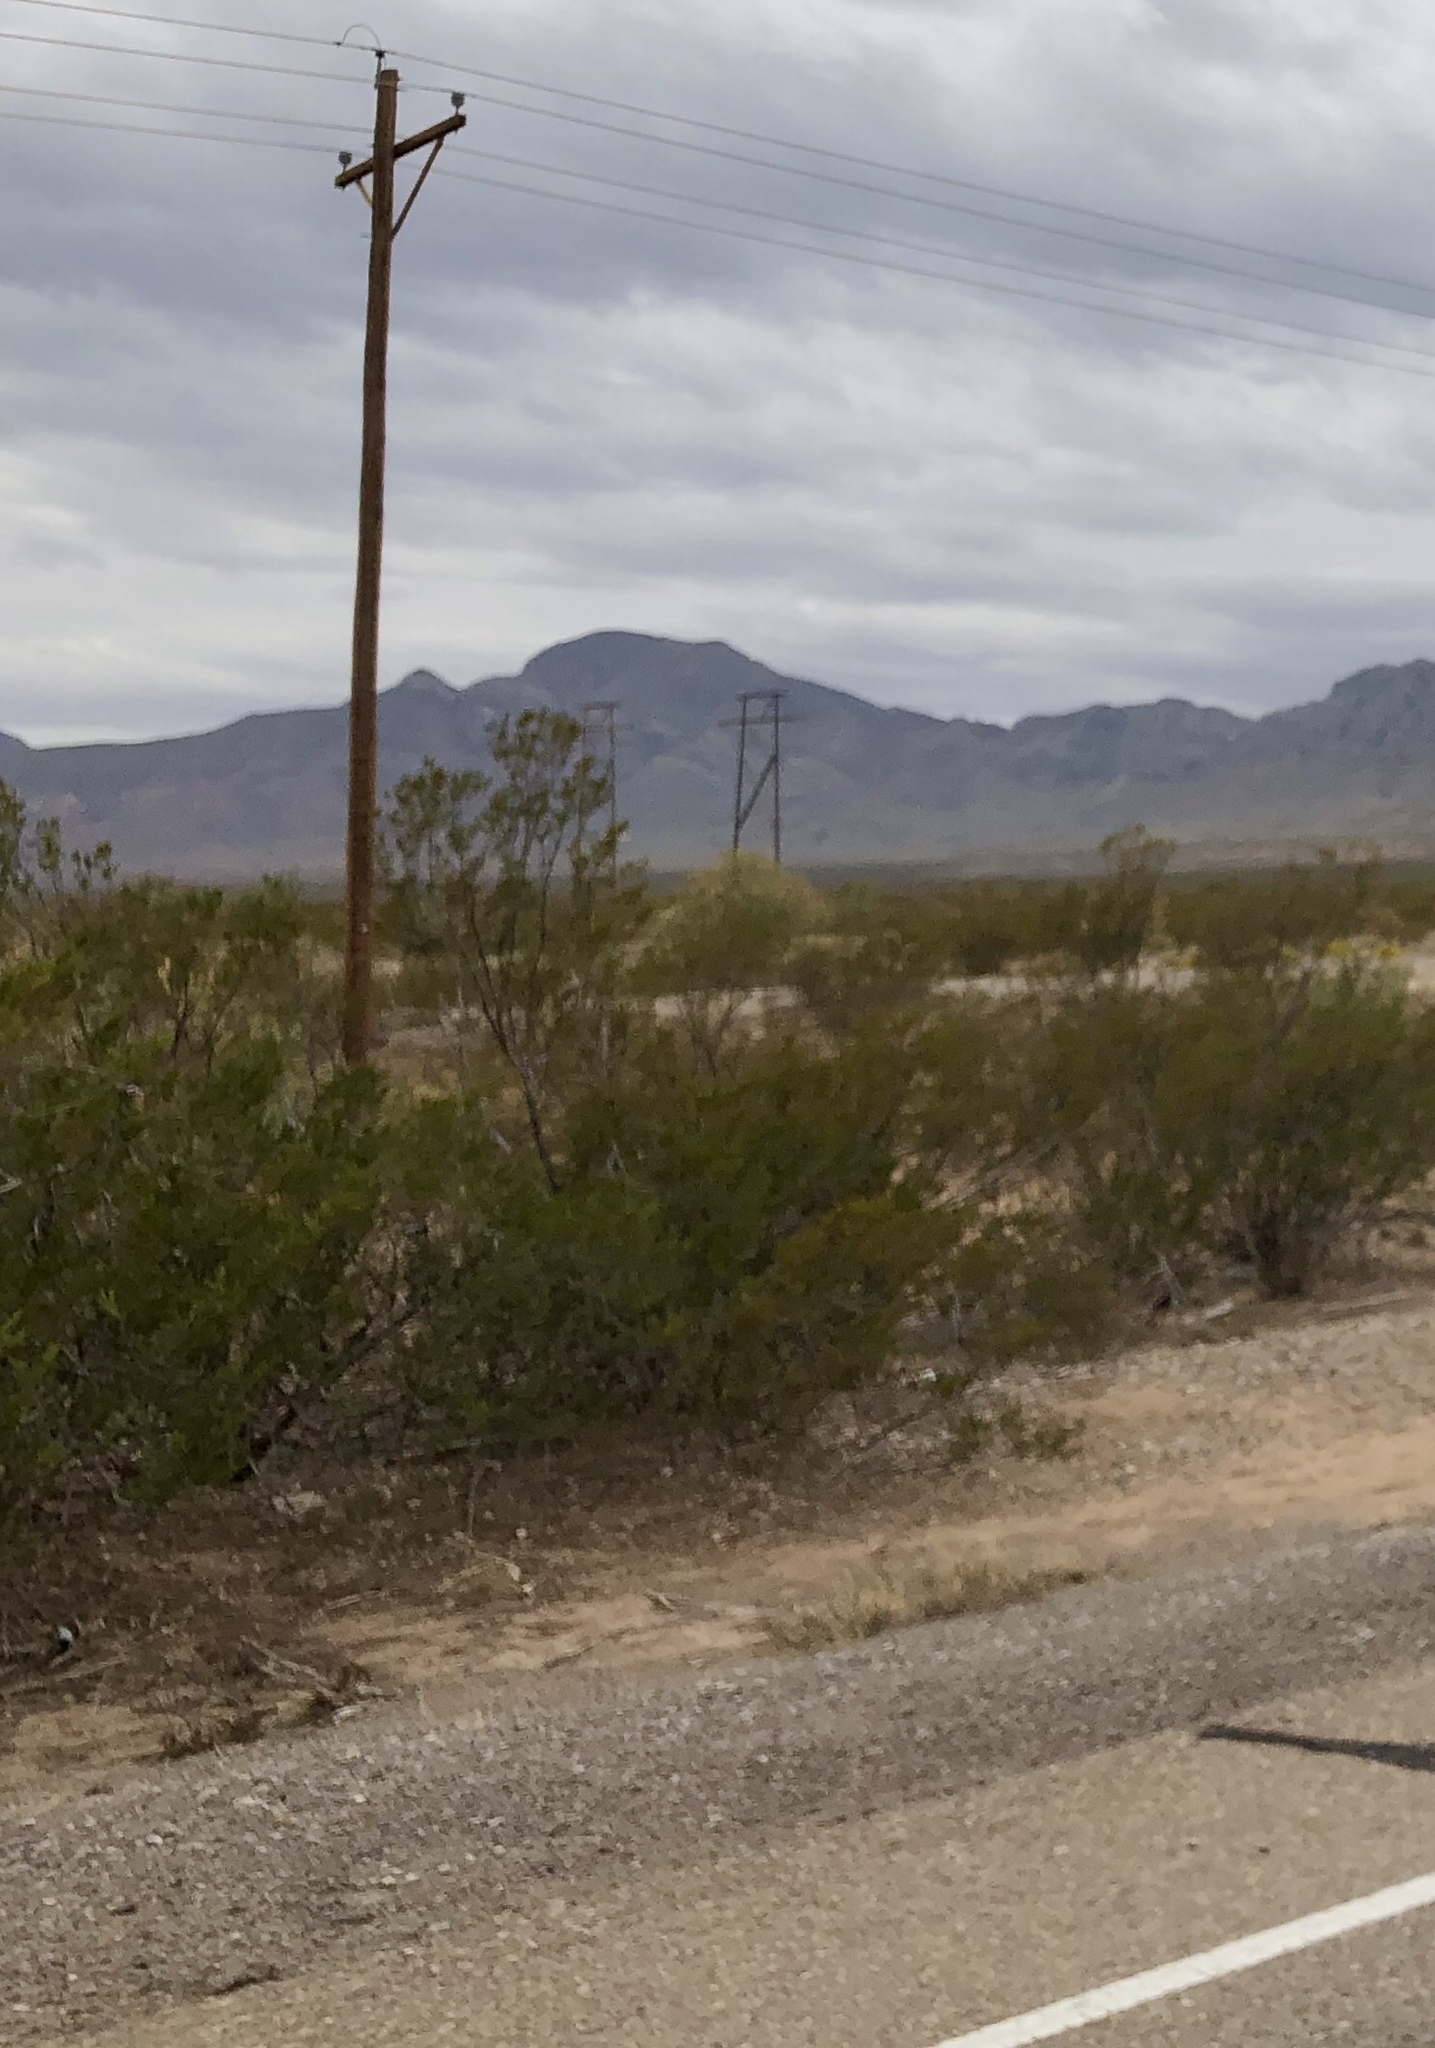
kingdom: Plantae
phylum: Tracheophyta
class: Magnoliopsida
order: Zygophyllales
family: Zygophyllaceae
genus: Larrea
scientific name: Larrea tridentata
